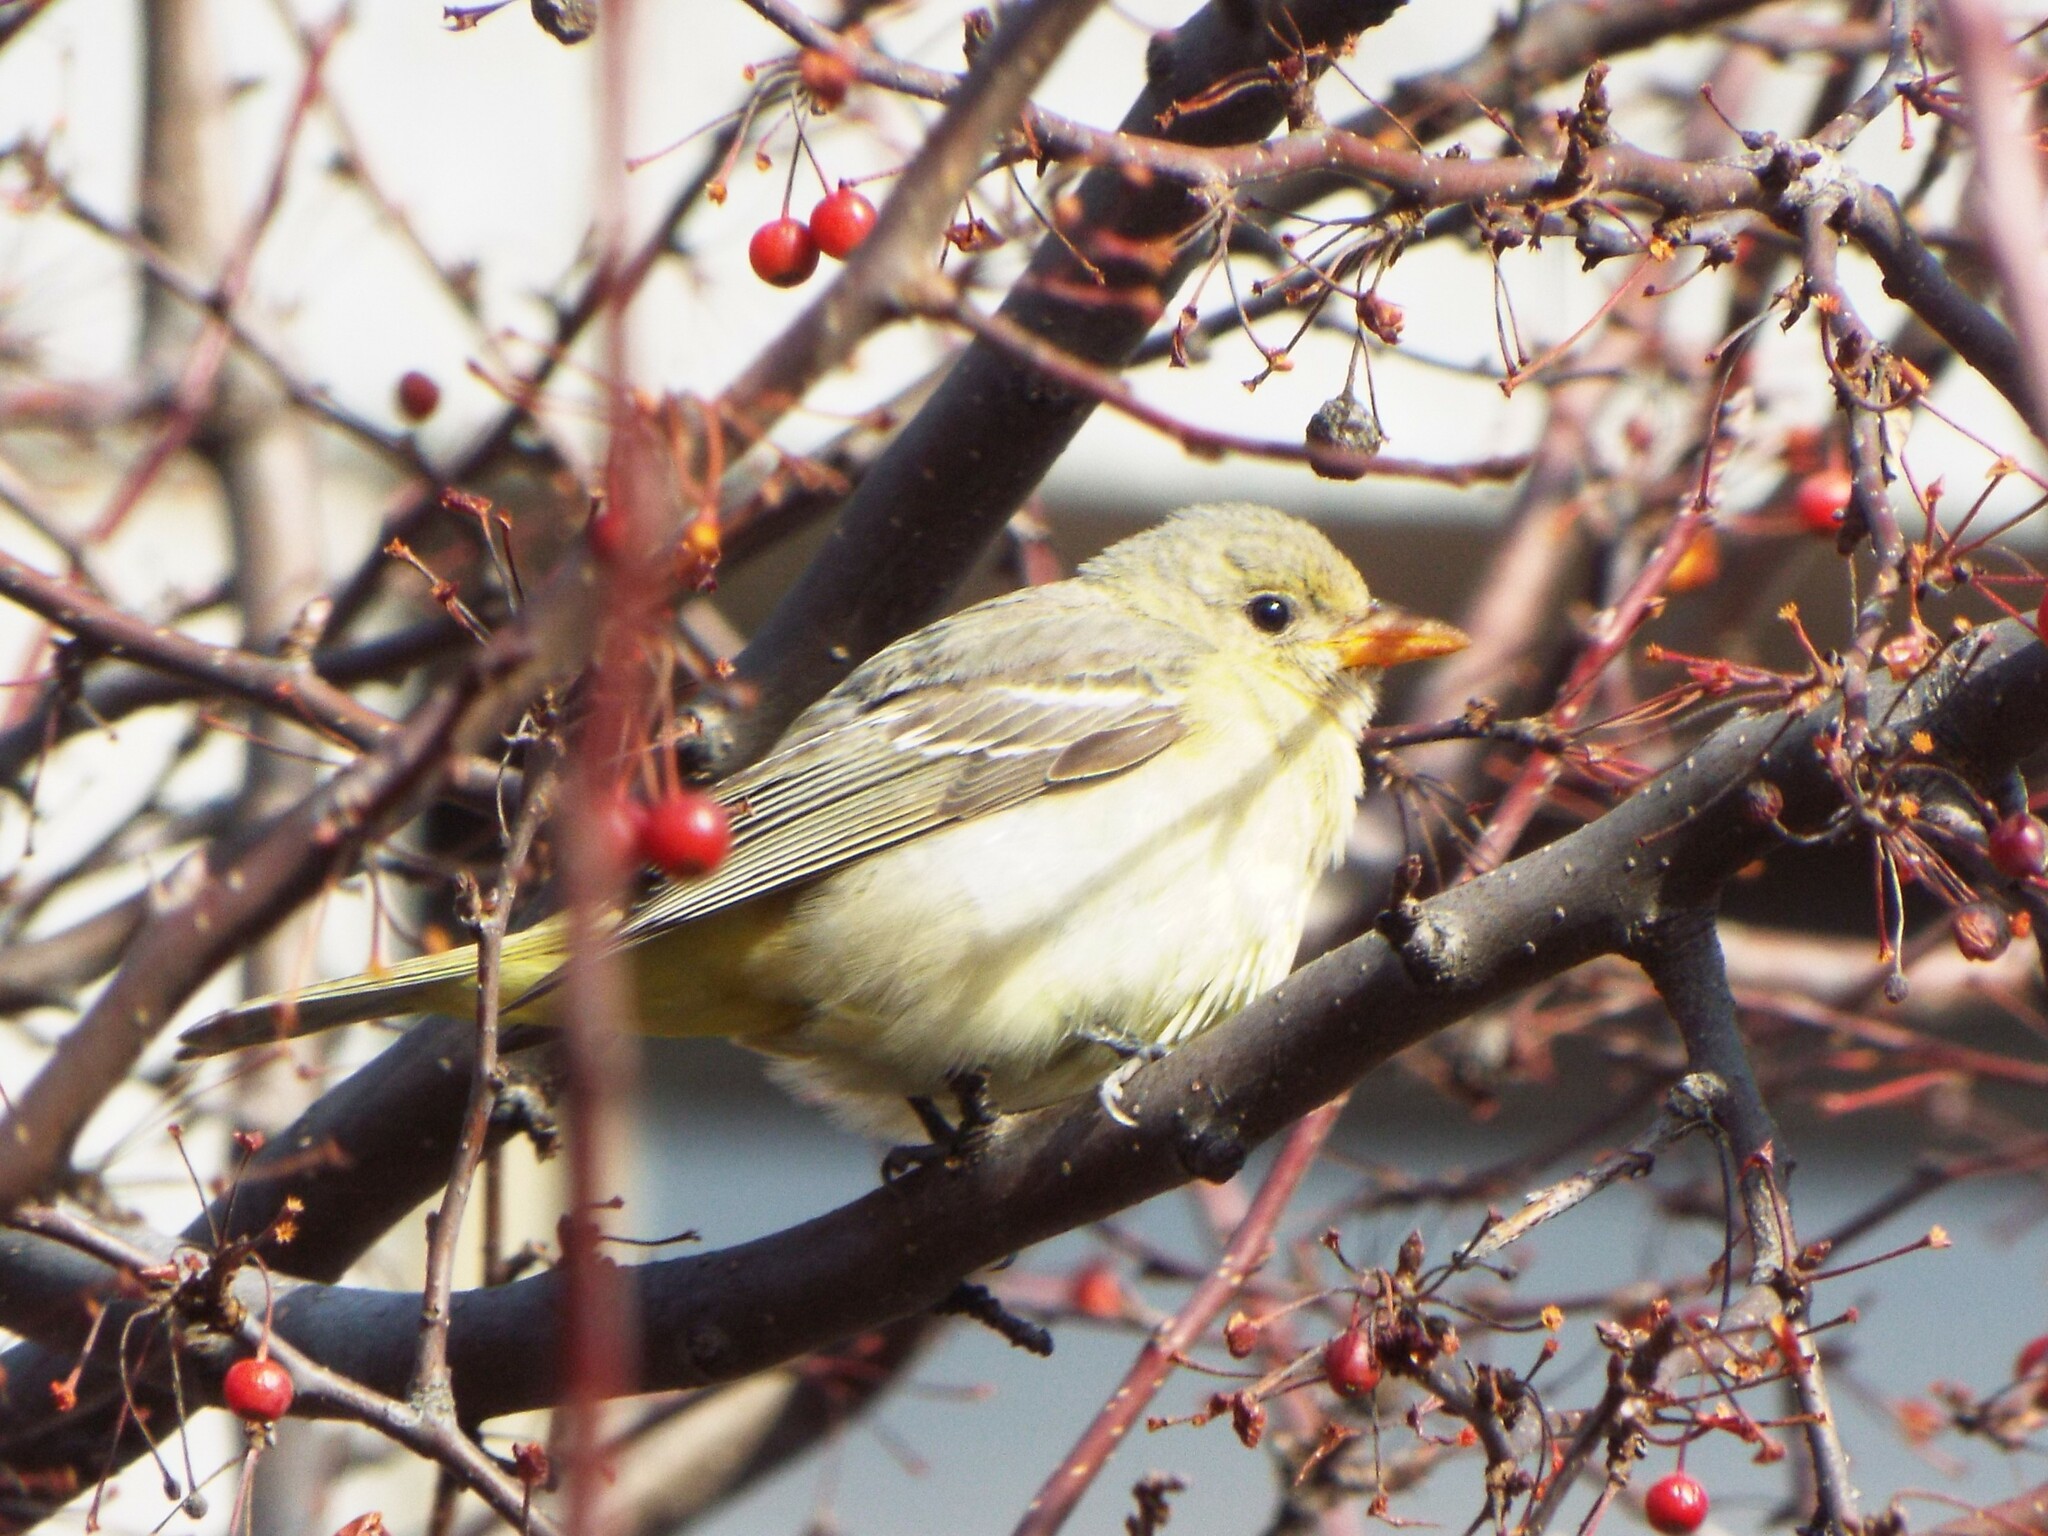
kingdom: Animalia
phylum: Chordata
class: Aves
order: Passeriformes
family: Cardinalidae
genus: Piranga
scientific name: Piranga ludoviciana
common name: Western tanager
